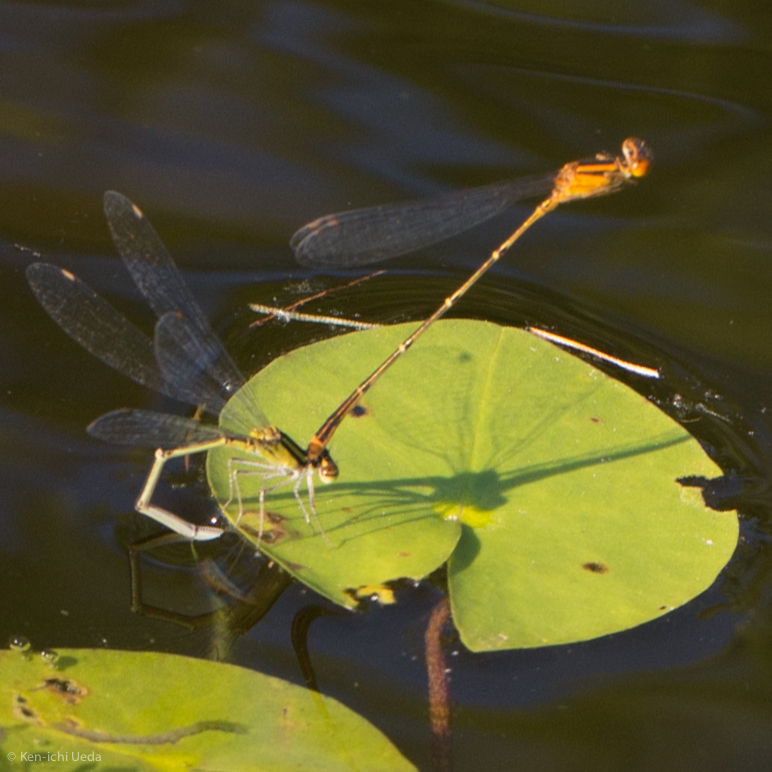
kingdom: Animalia
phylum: Arthropoda
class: Insecta
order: Odonata
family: Coenagrionidae
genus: Enallagma
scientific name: Enallagma signatum
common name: Orange bluet
